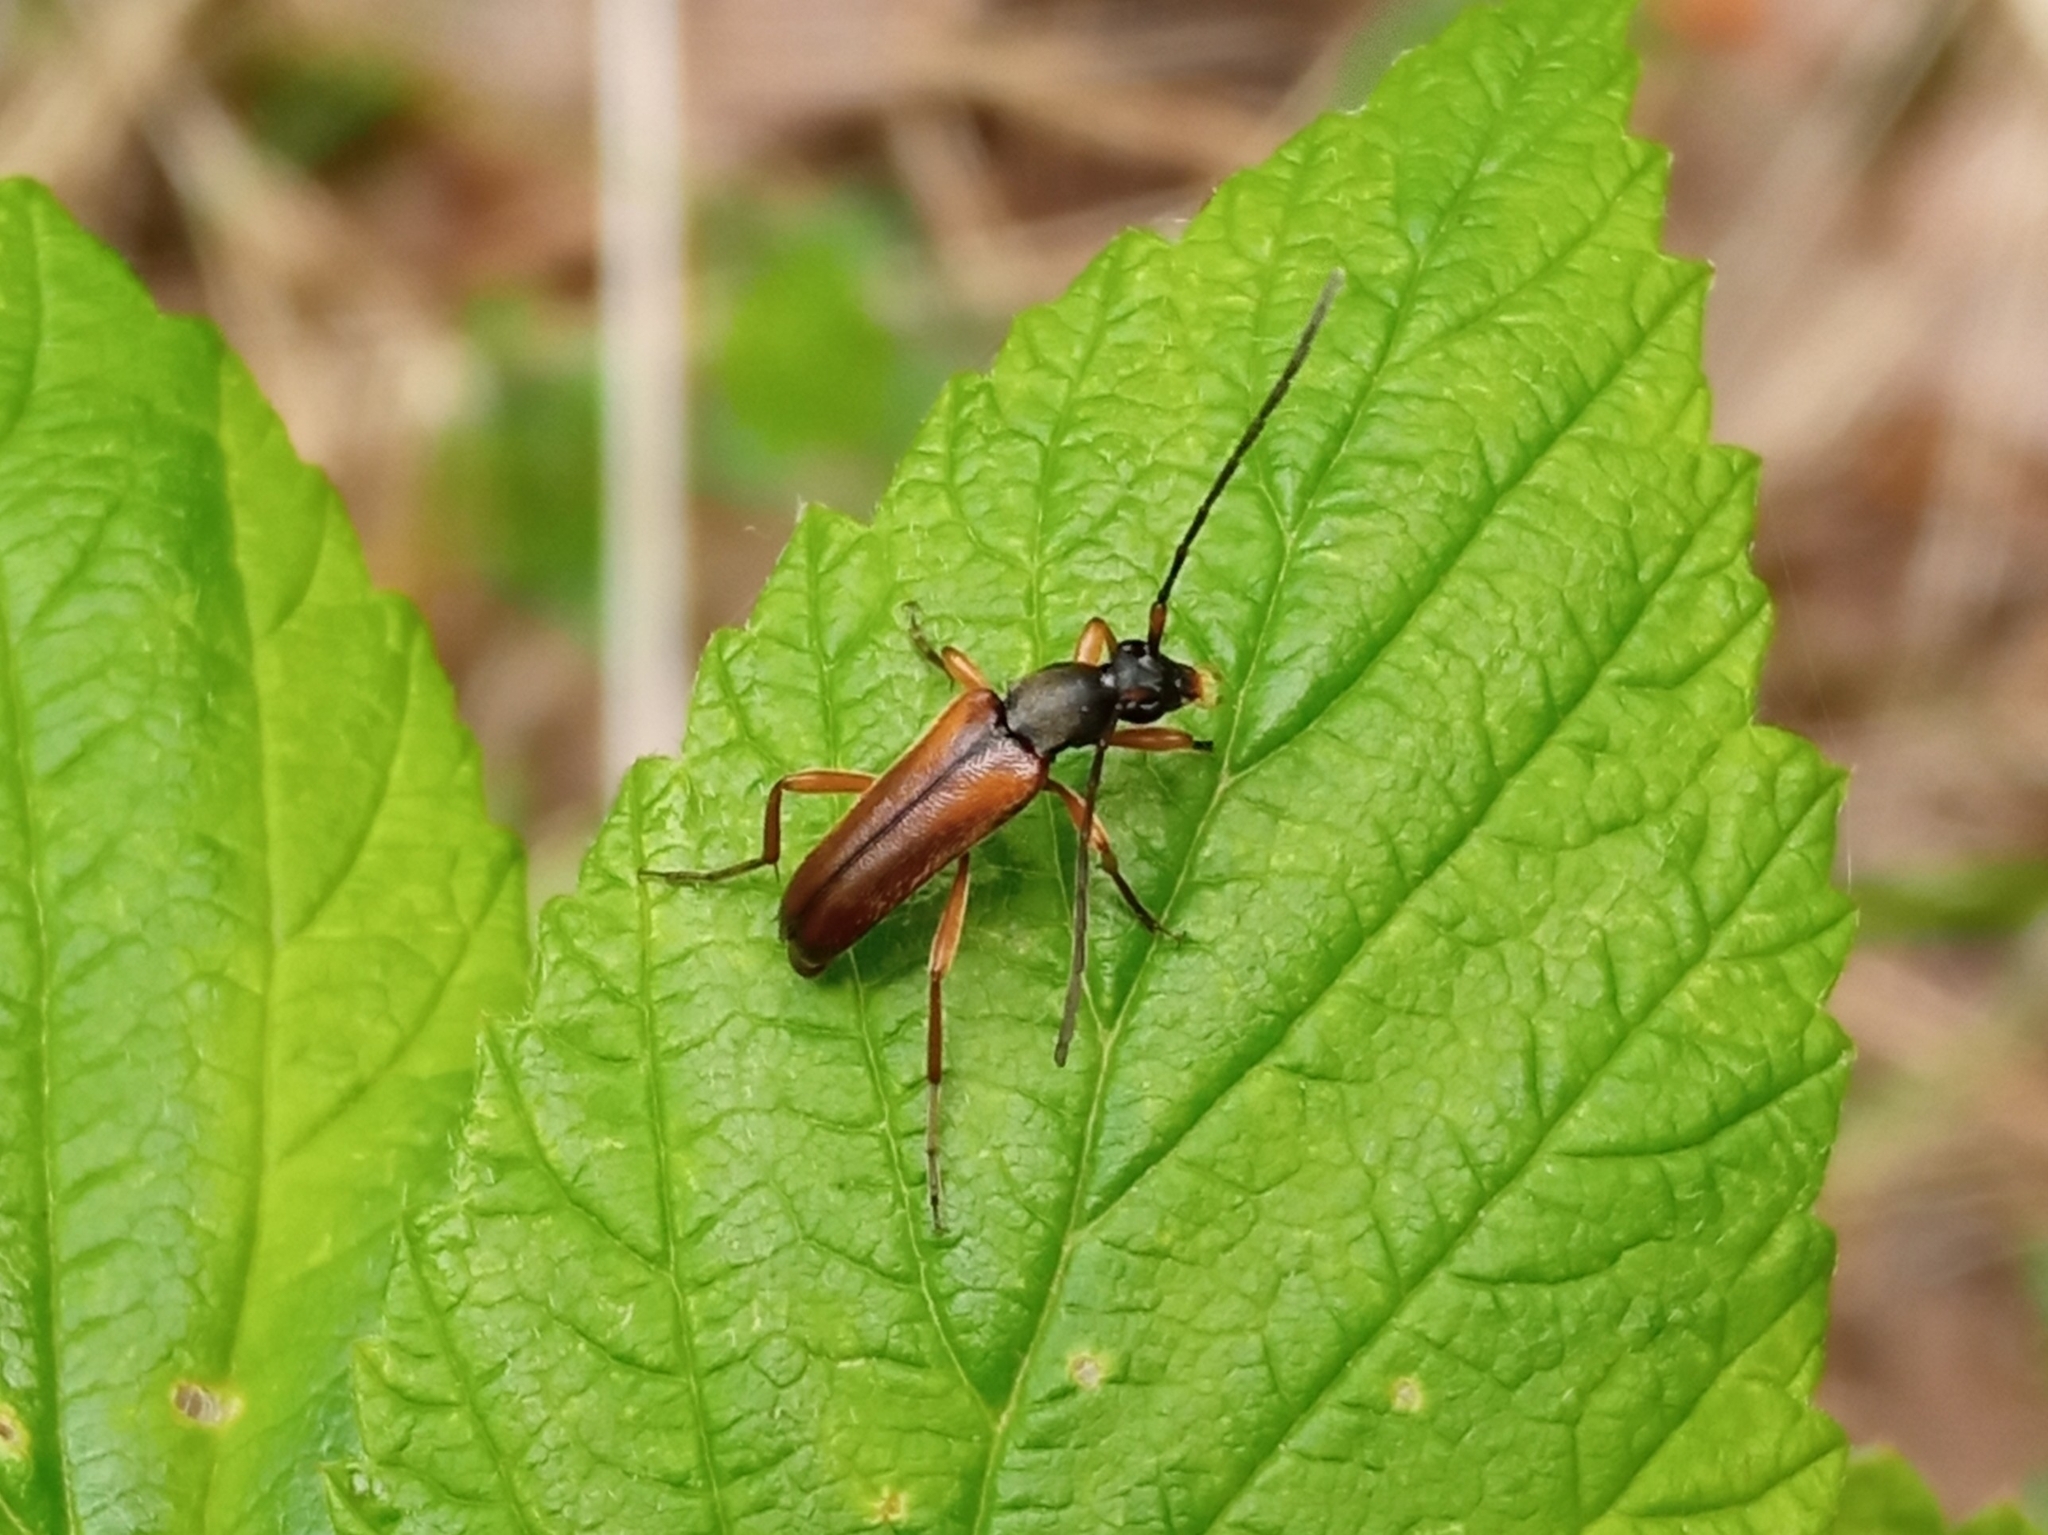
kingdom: Animalia
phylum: Arthropoda
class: Insecta
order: Coleoptera
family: Cerambycidae
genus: Alosterna
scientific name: Alosterna tabacicolor
